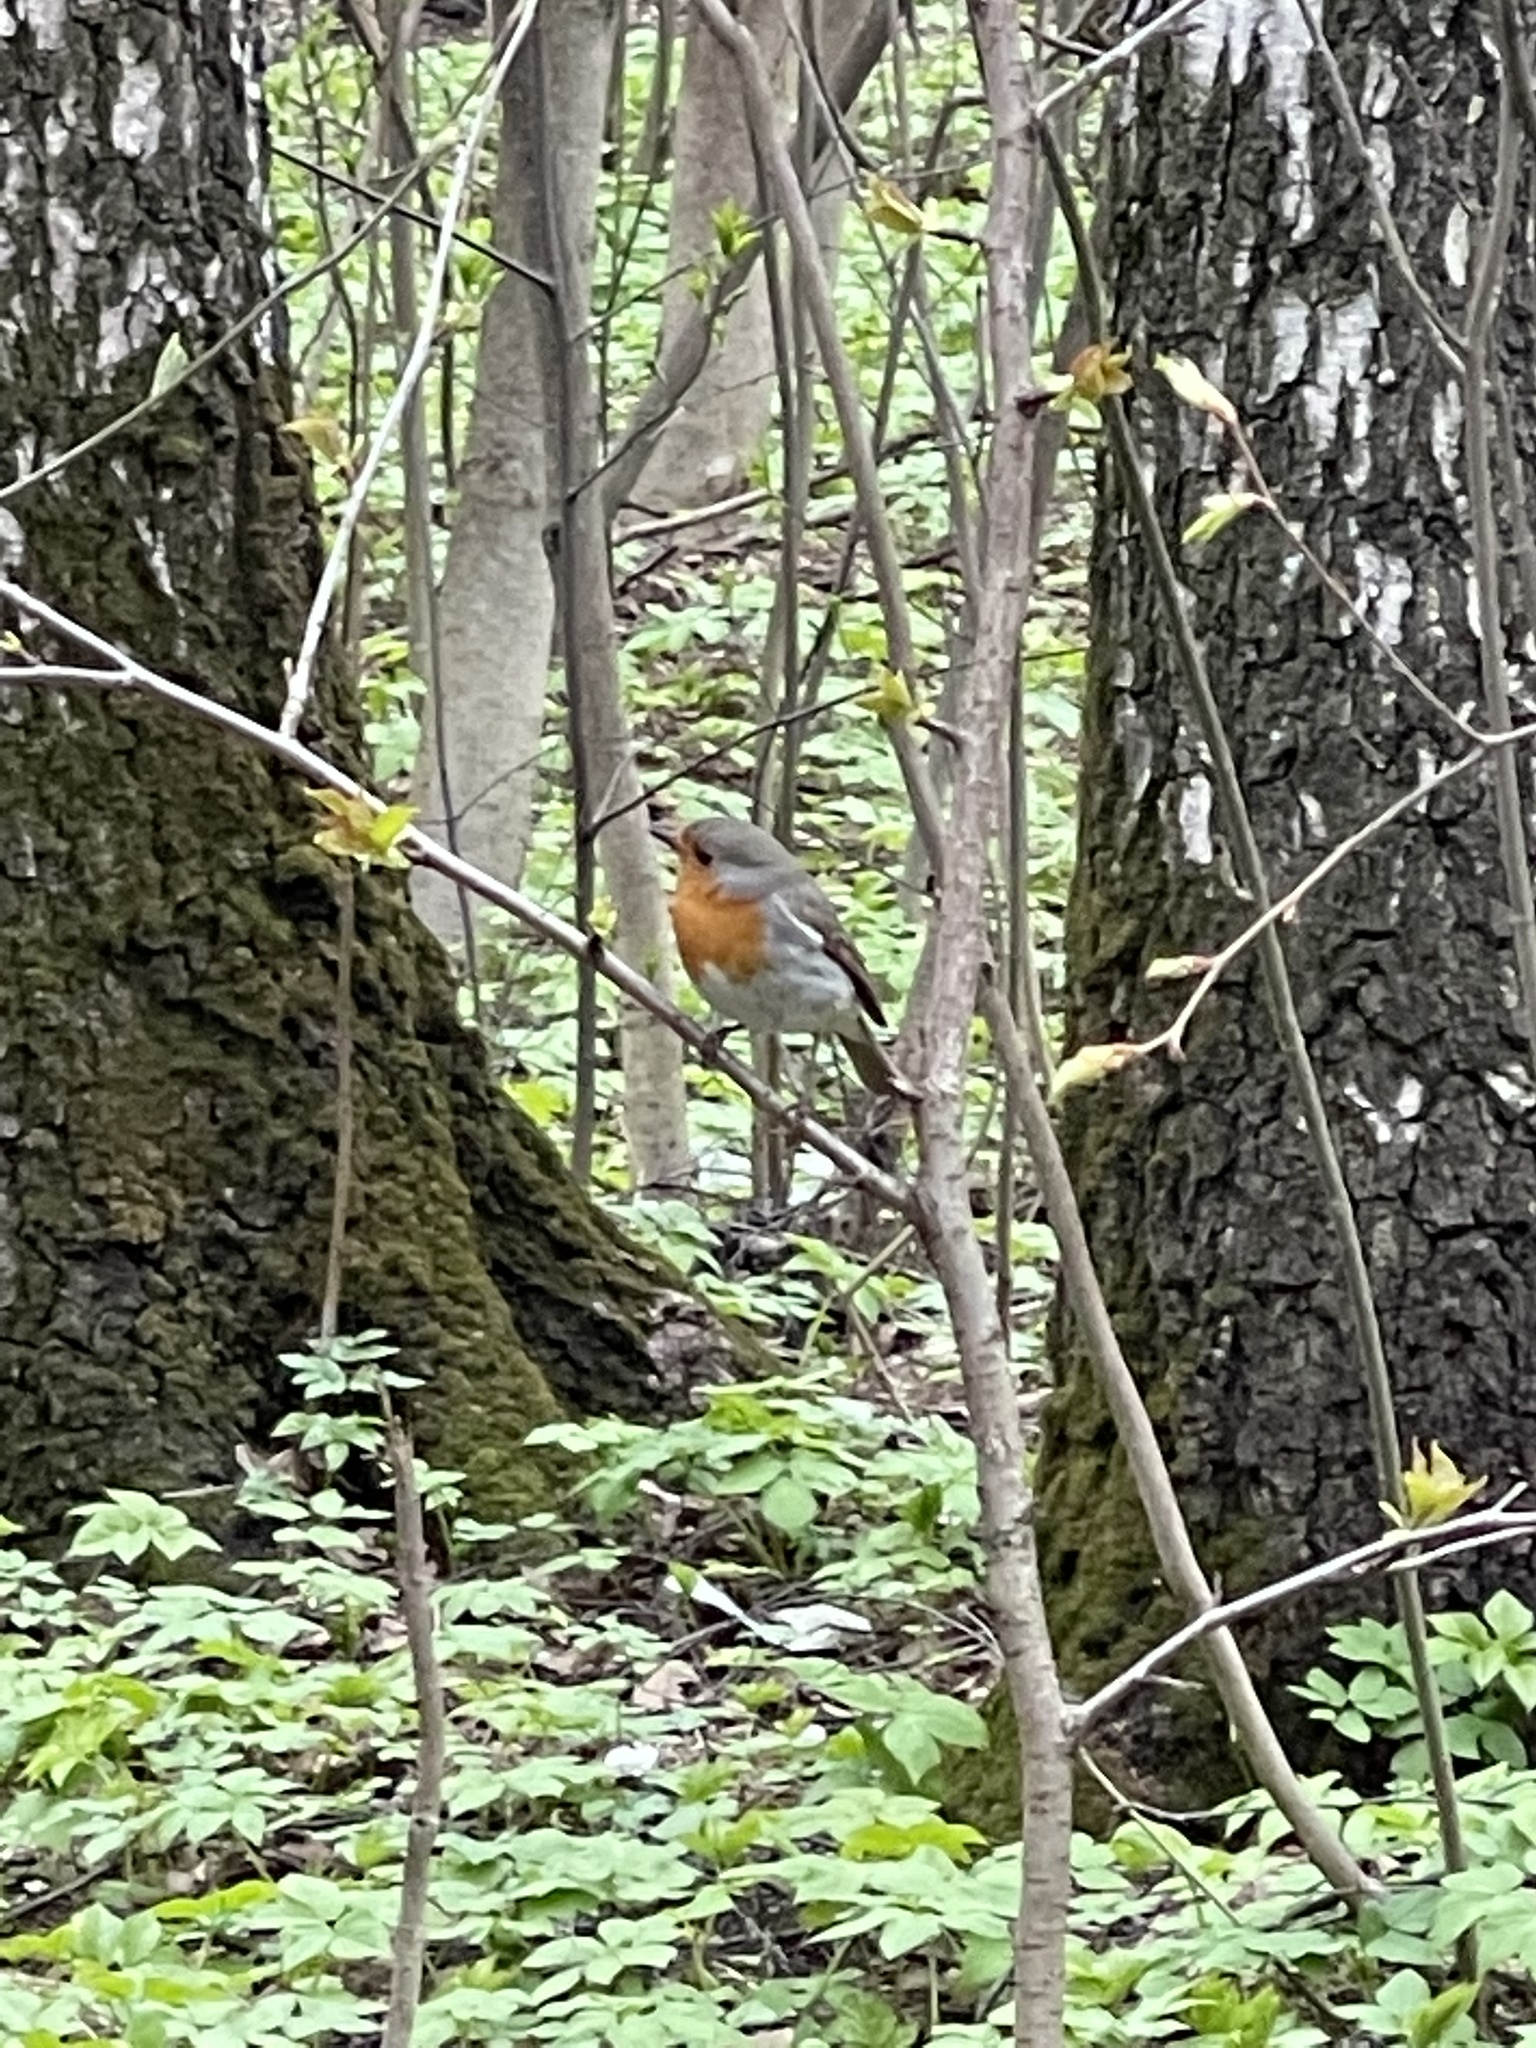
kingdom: Animalia
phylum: Chordata
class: Aves
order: Passeriformes
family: Muscicapidae
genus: Erithacus
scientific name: Erithacus rubecula
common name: European robin
